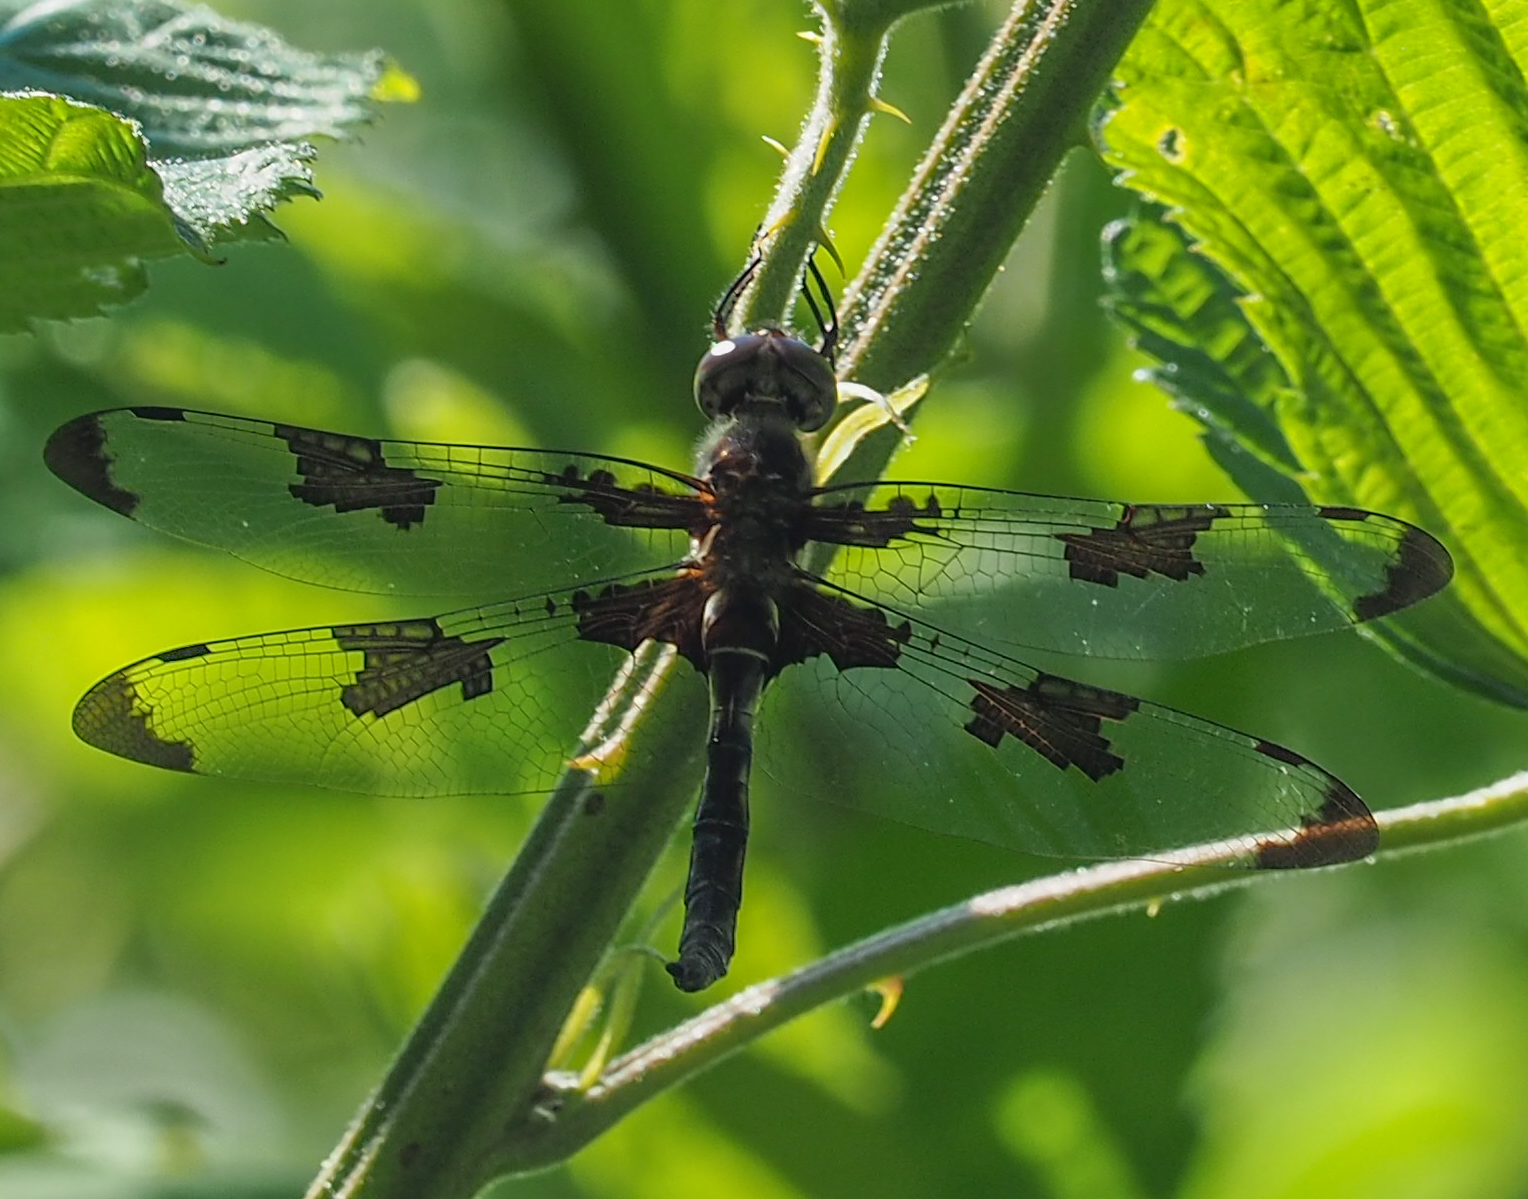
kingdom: Animalia
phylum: Arthropoda
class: Insecta
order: Odonata
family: Corduliidae
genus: Epitheca
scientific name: Epitheca princeps
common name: Prince baskettail
